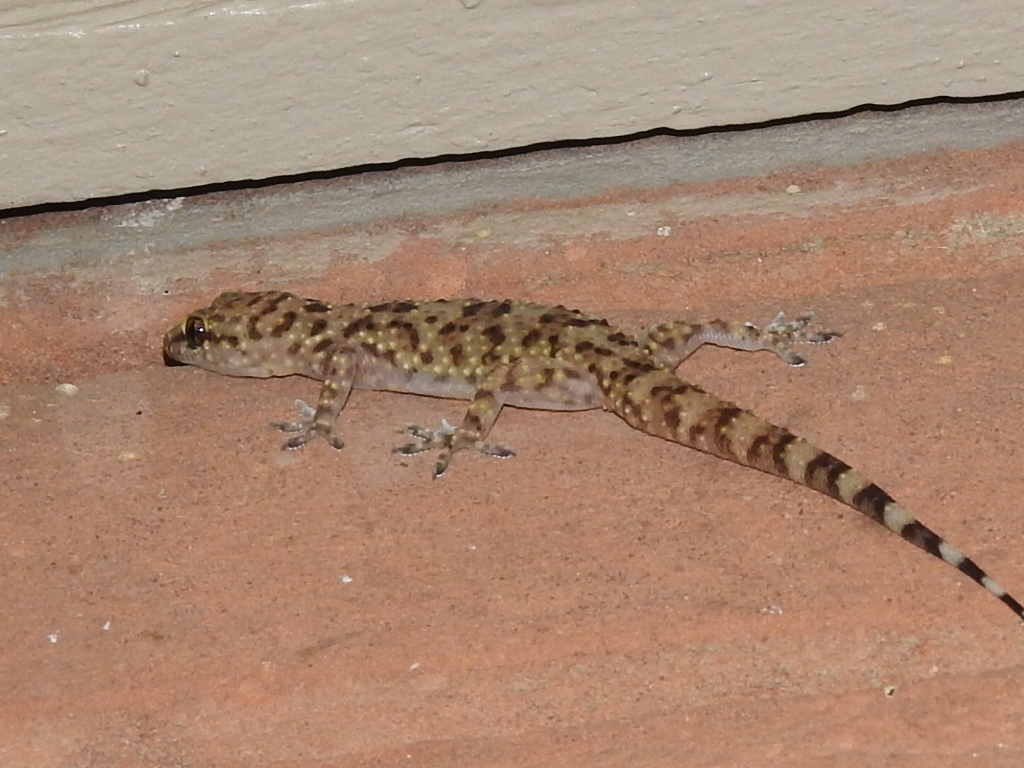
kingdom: Animalia
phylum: Chordata
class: Squamata
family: Gekkonidae
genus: Hemidactylus
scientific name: Hemidactylus turcicus
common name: Turkish gecko
